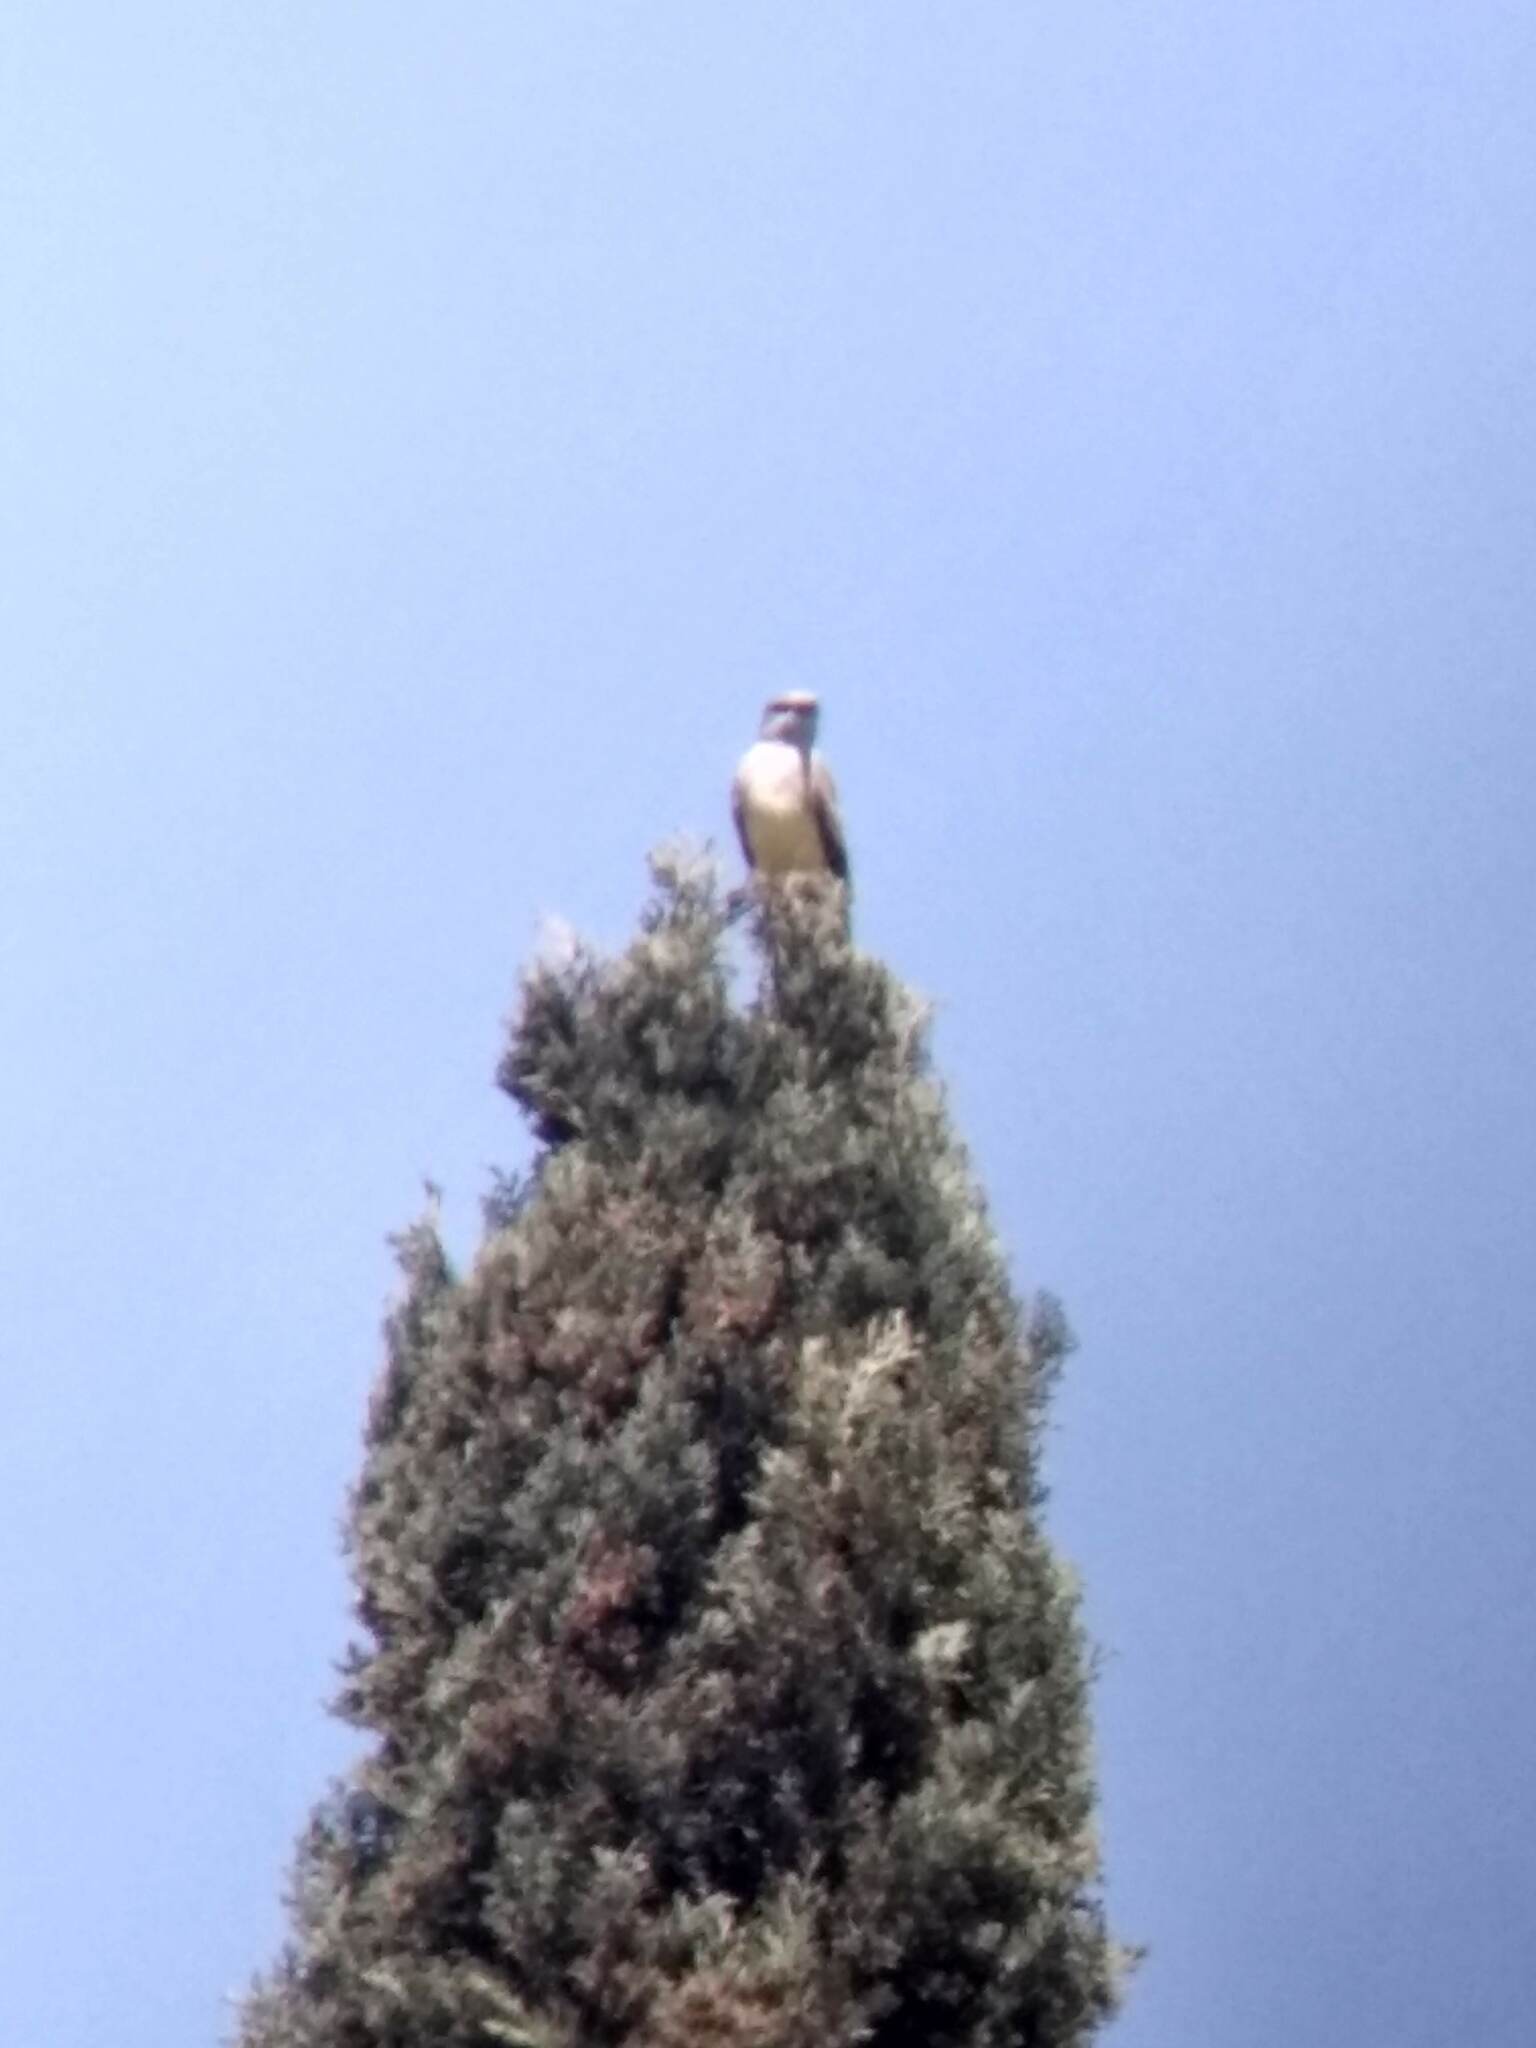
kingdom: Animalia
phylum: Chordata
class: Aves
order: Passeriformes
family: Tyrannidae
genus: Tyrannus
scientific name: Tyrannus verticalis
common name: Western kingbird
